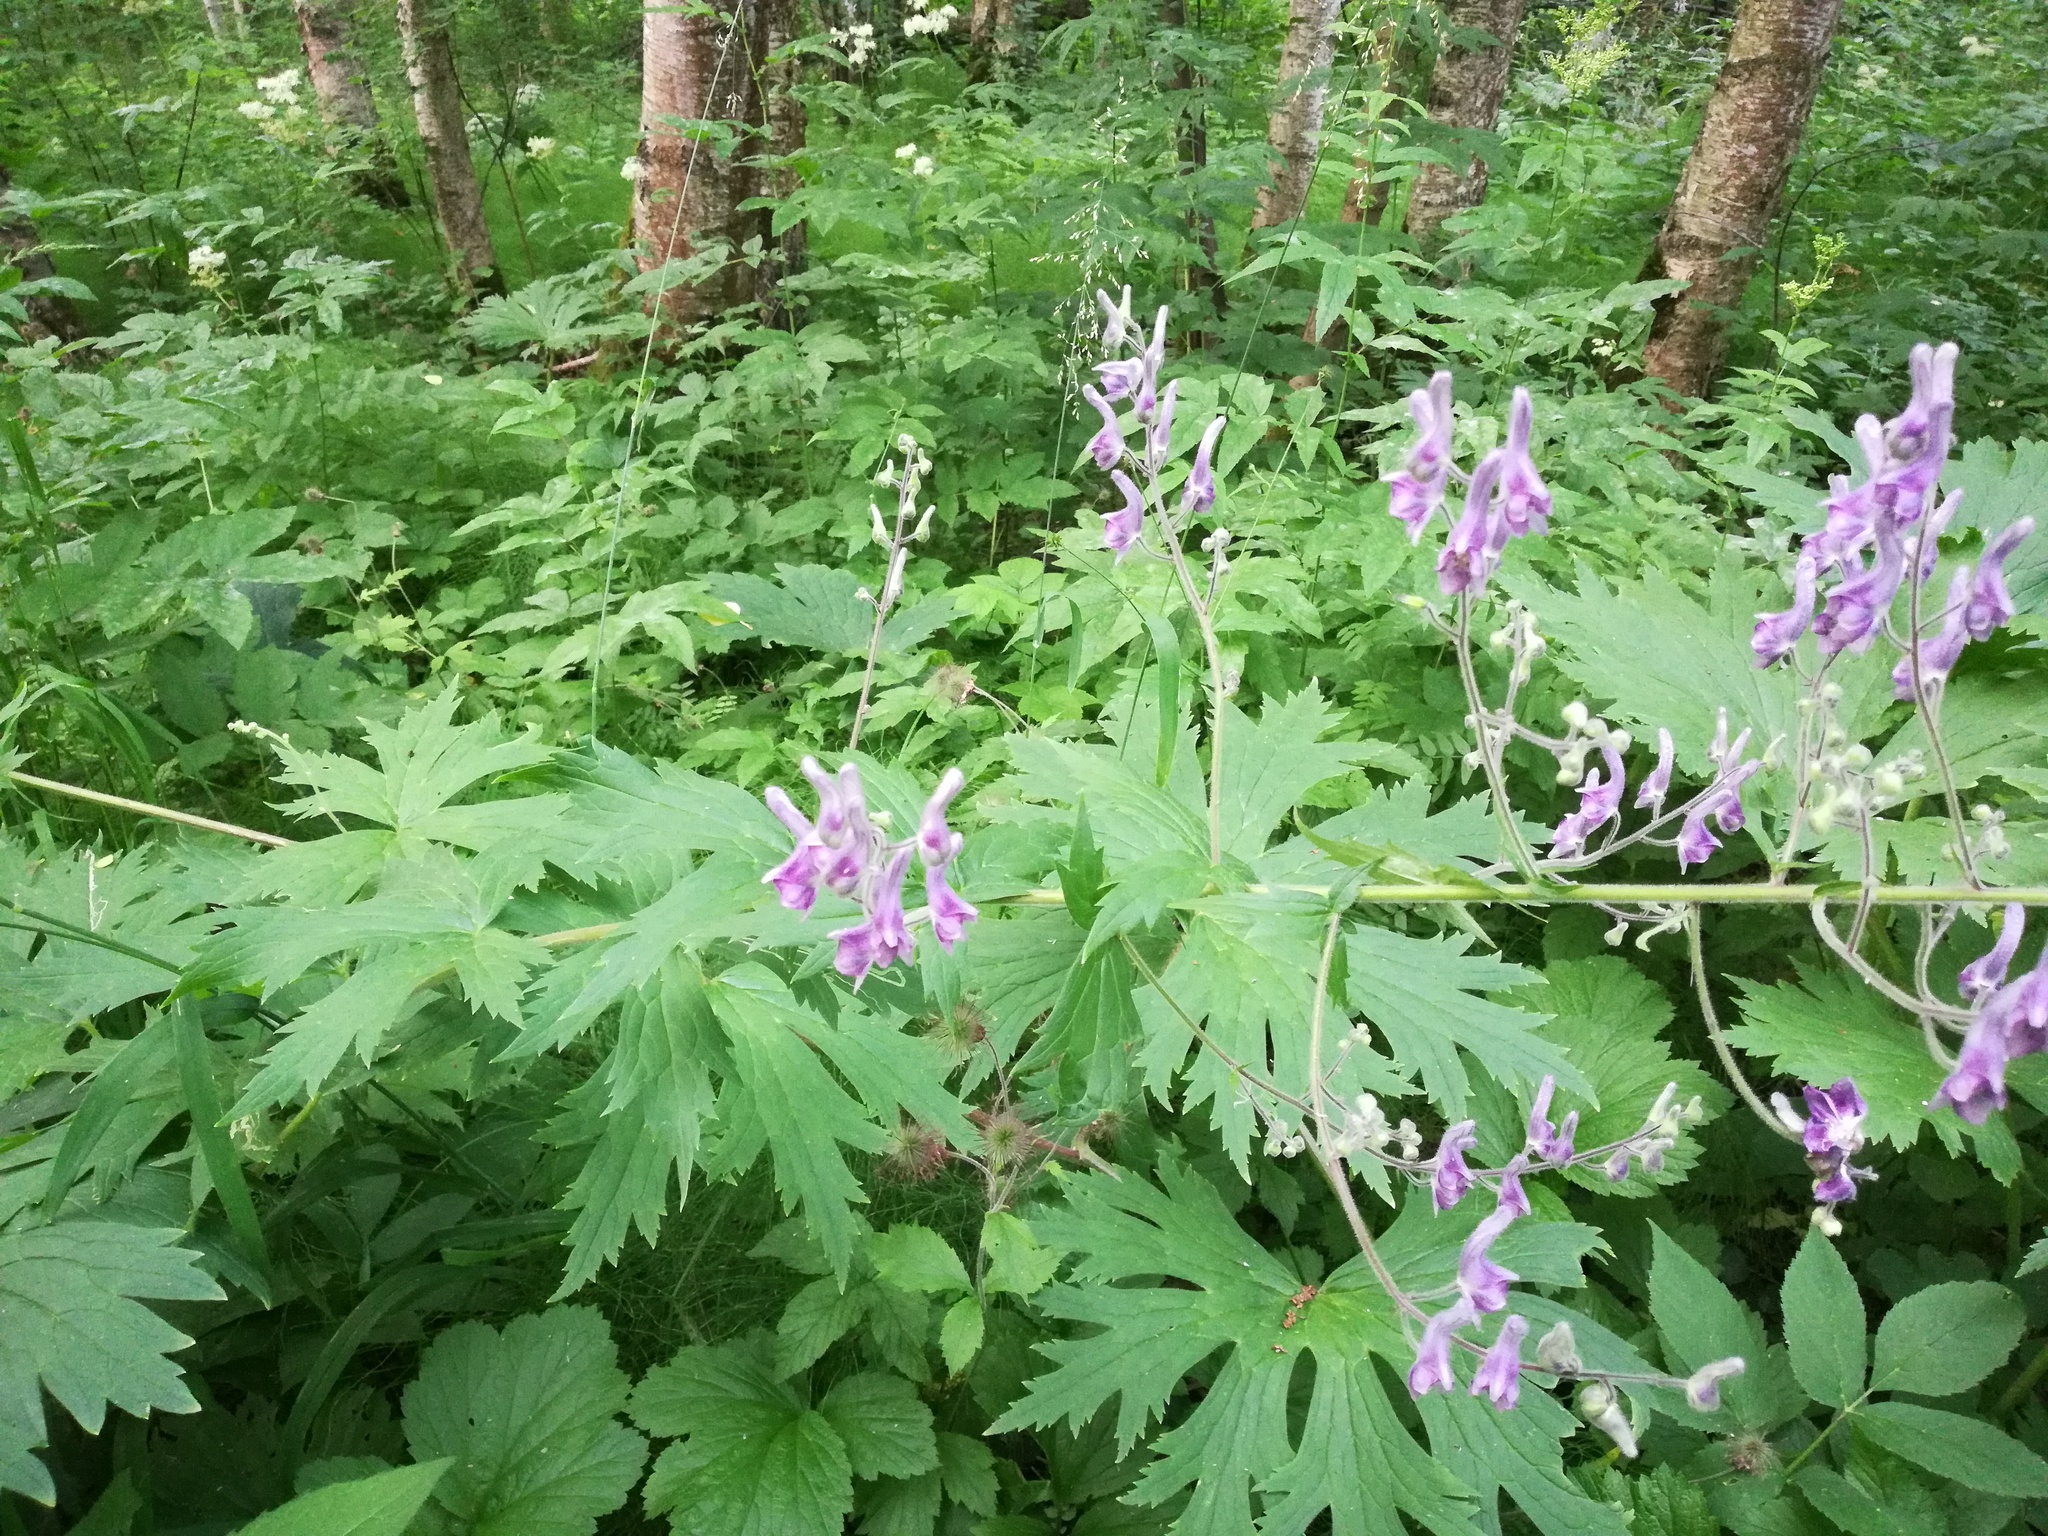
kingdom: Plantae
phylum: Tracheophyta
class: Magnoliopsida
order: Ranunculales
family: Ranunculaceae
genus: Aconitum
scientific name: Aconitum septentrionale
